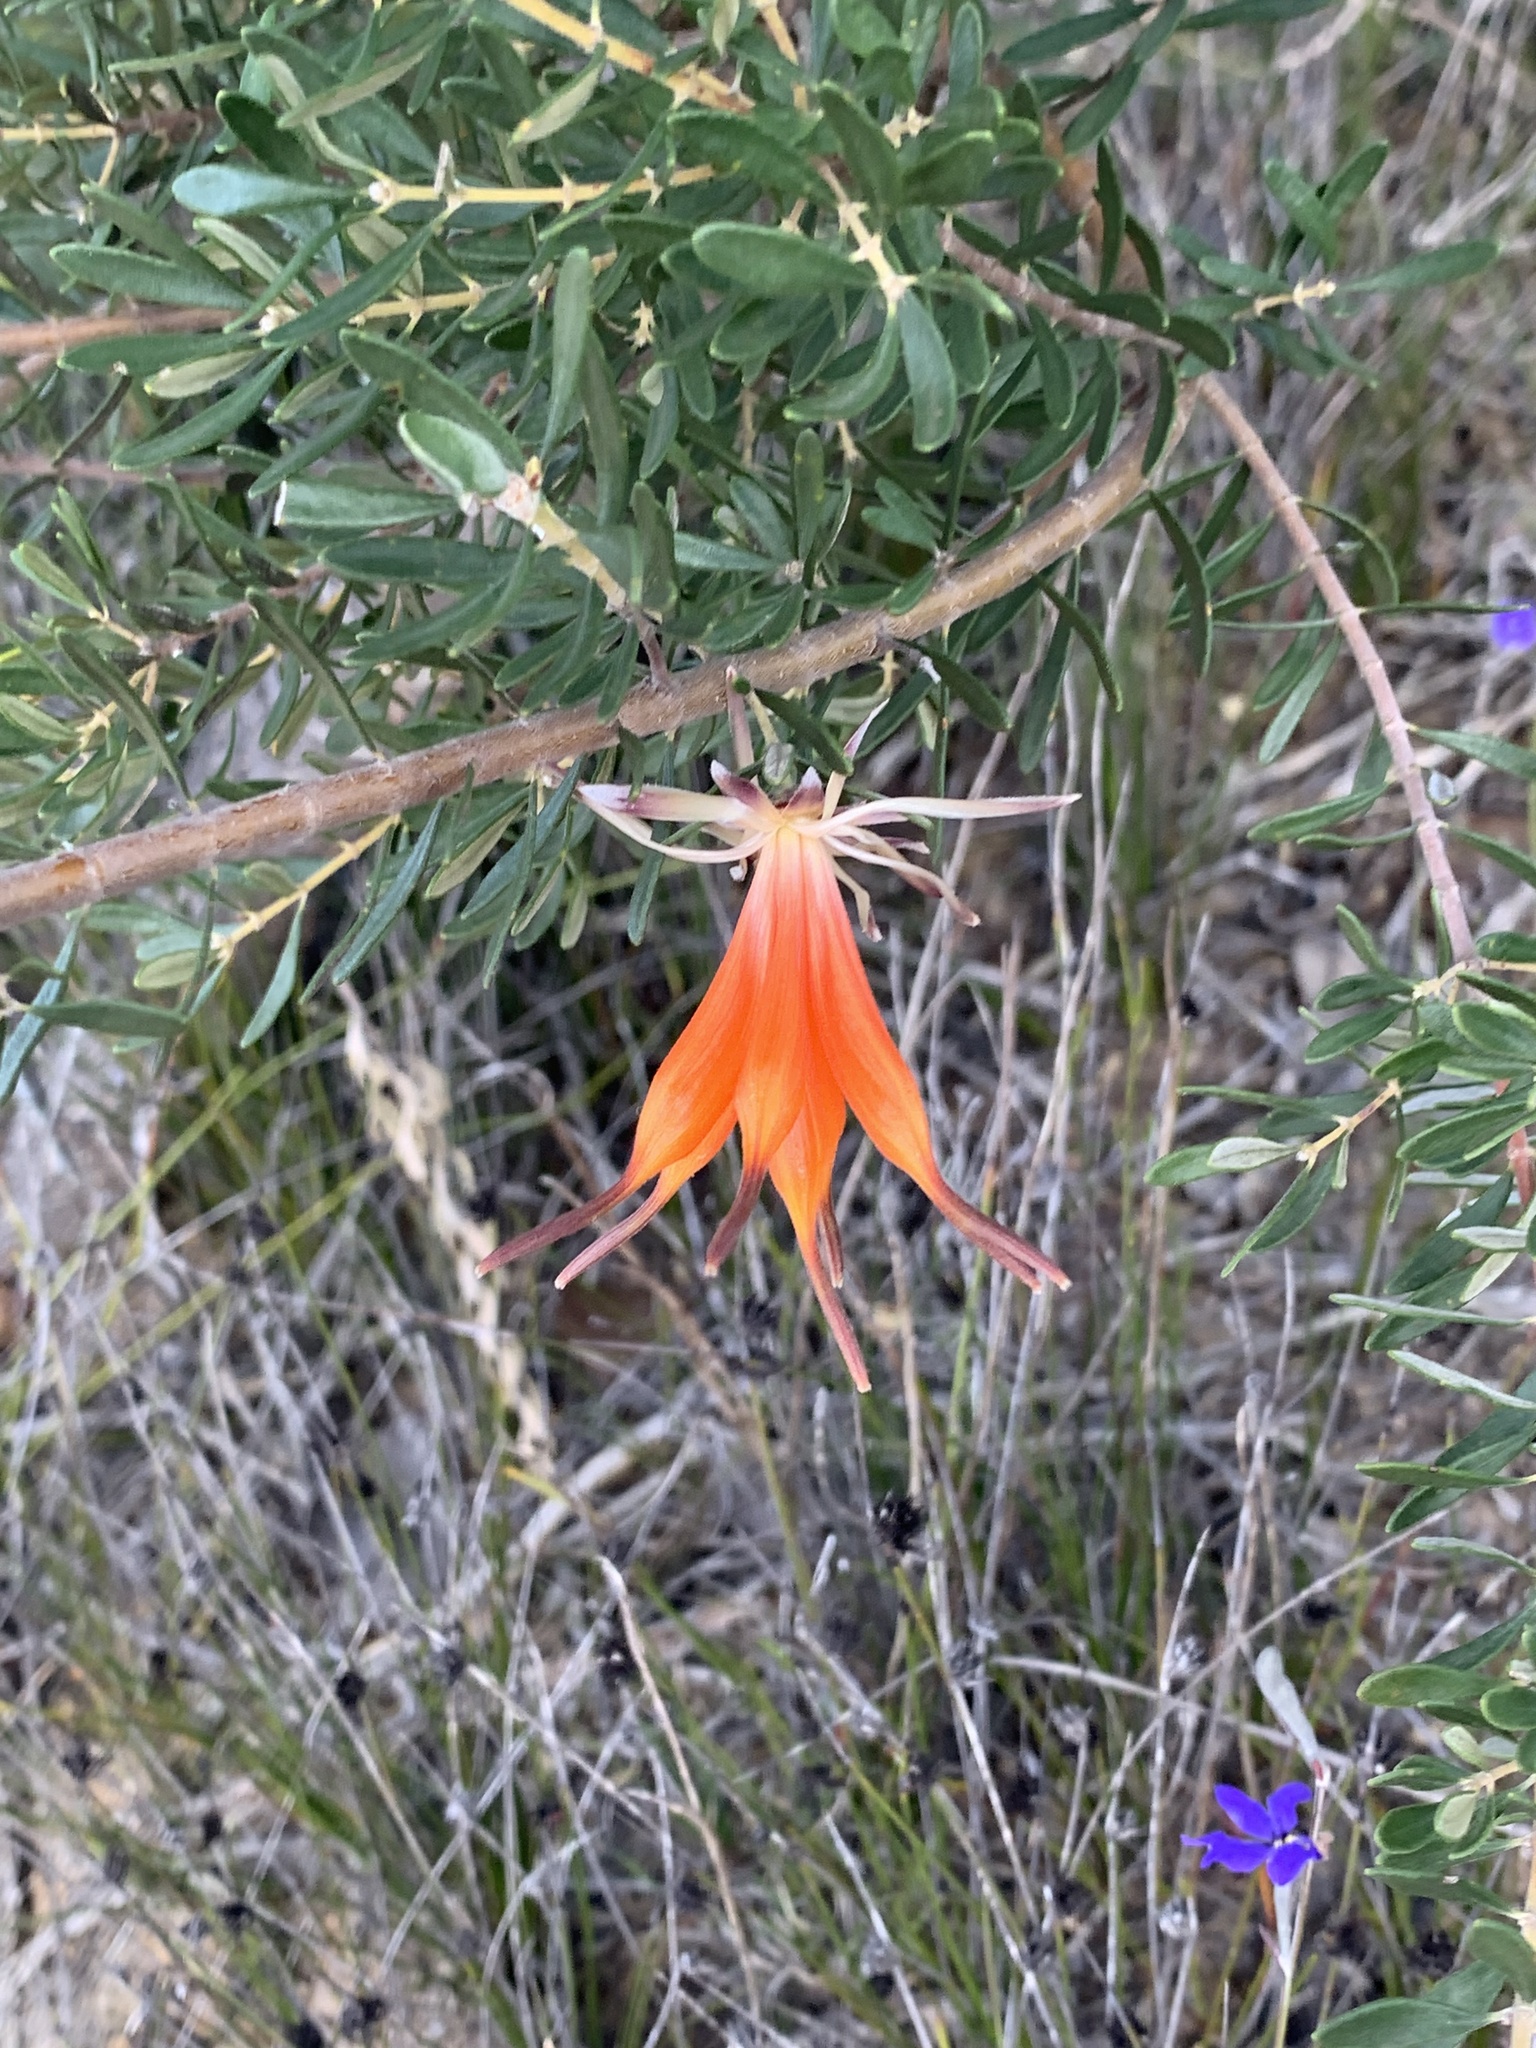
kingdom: Plantae
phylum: Tracheophyta
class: Magnoliopsida
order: Proteales
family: Proteaceae
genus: Lambertia
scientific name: Lambertia inermis
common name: Chittick
